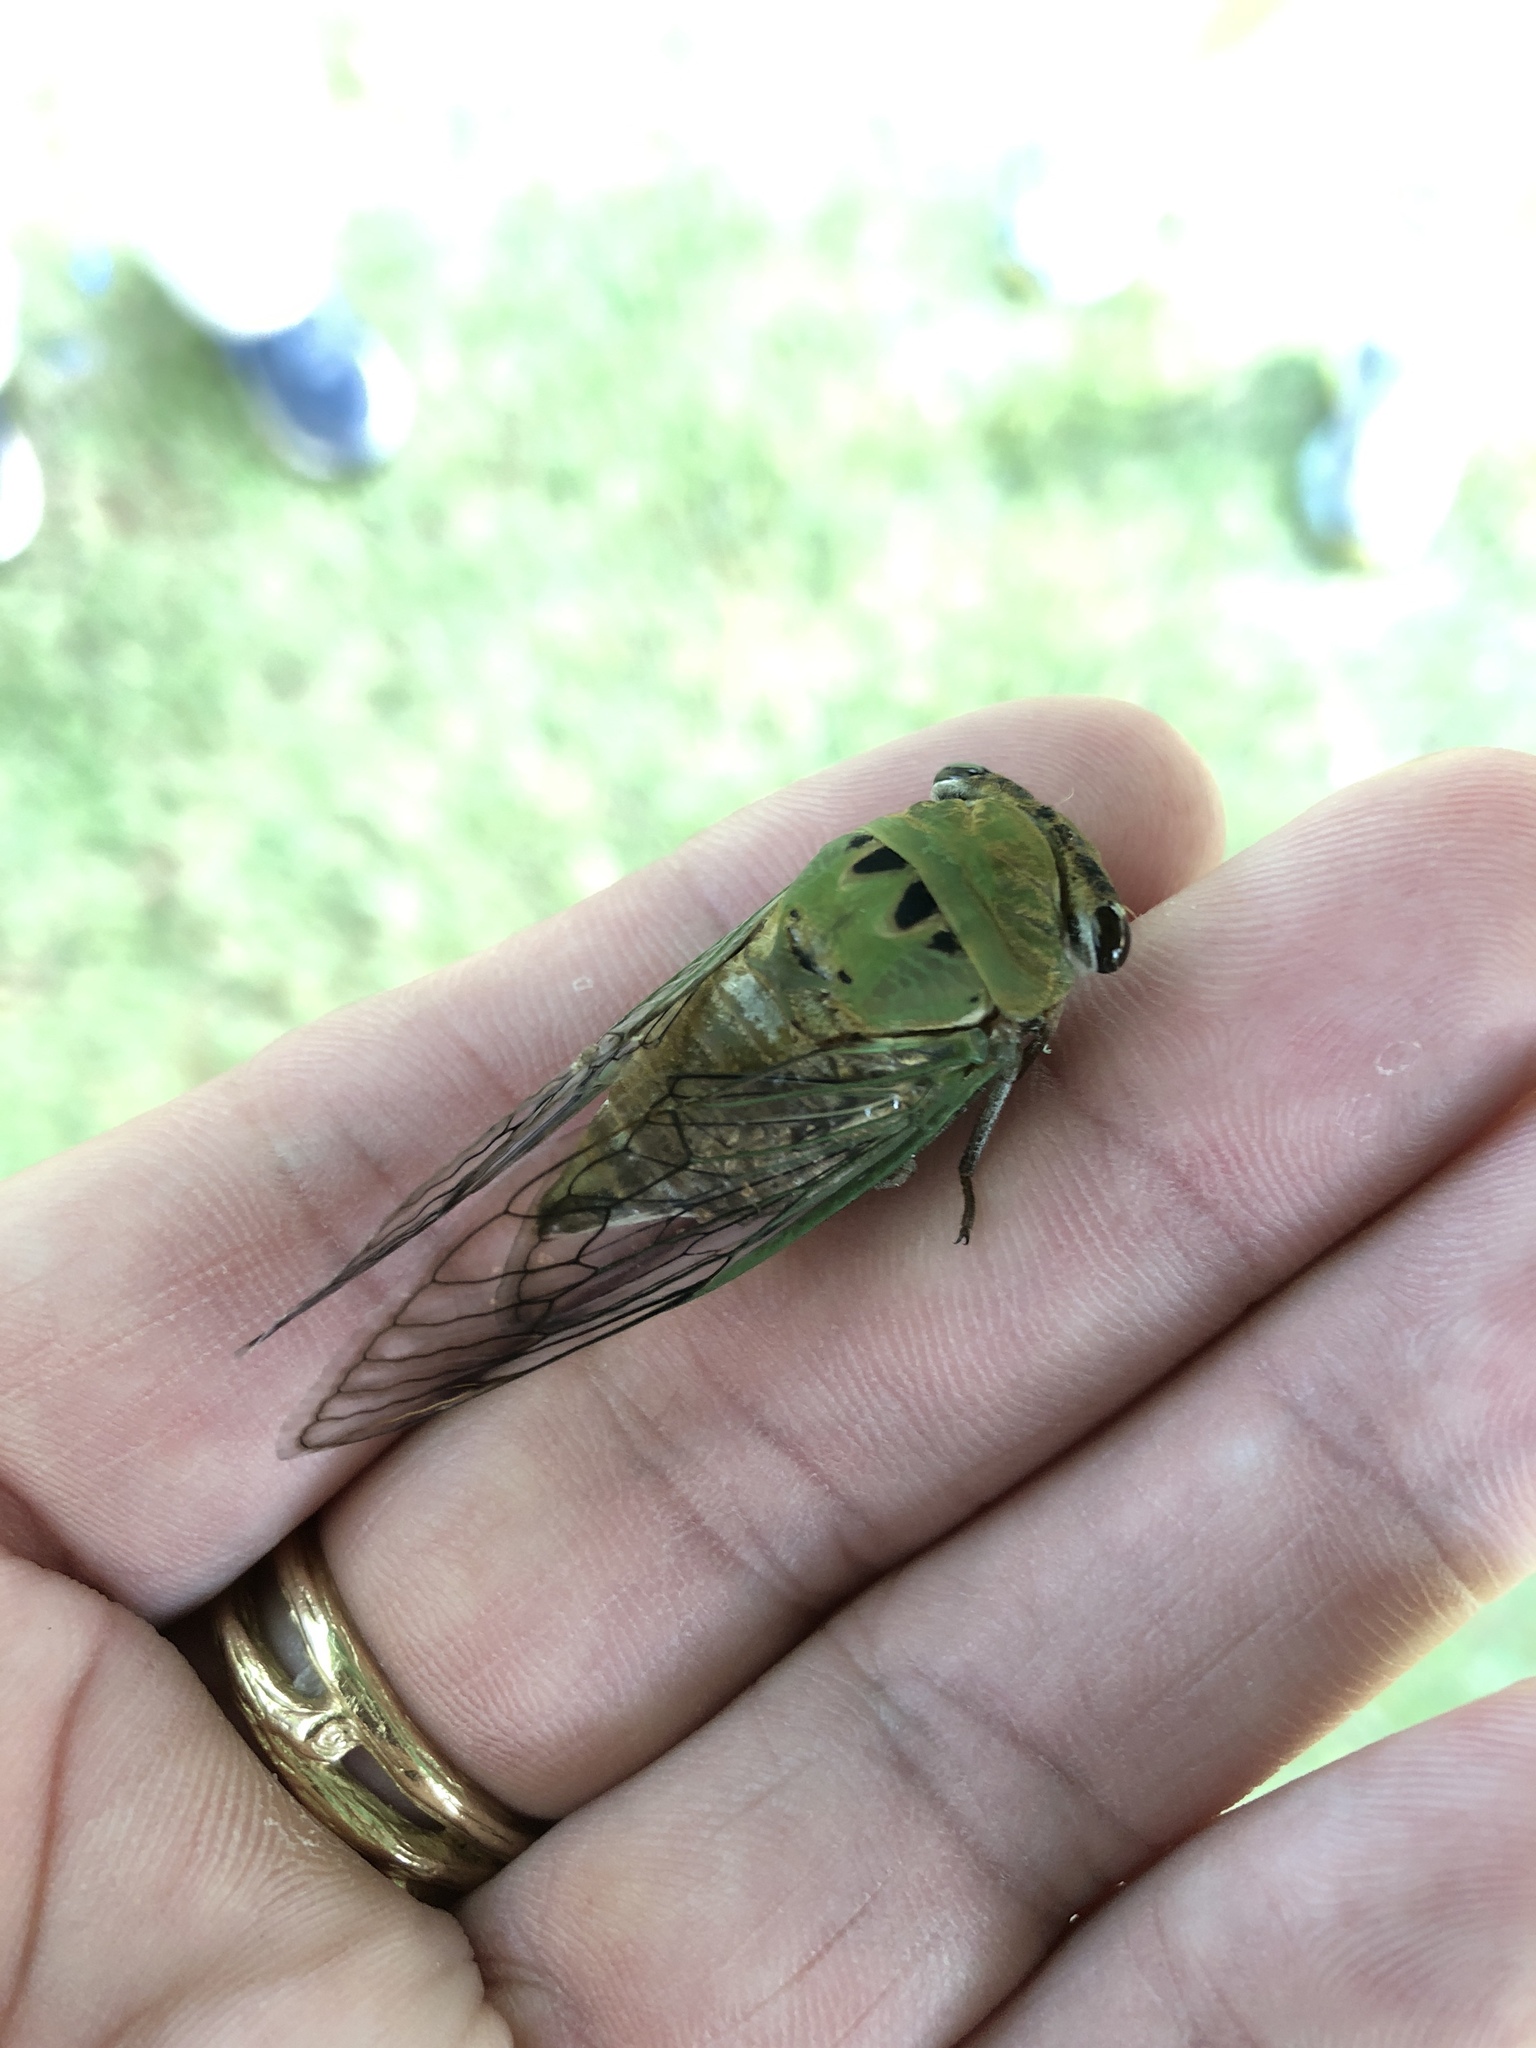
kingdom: Animalia
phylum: Arthropoda
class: Insecta
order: Hemiptera
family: Cicadidae
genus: Neotibicen
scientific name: Neotibicen superbus
